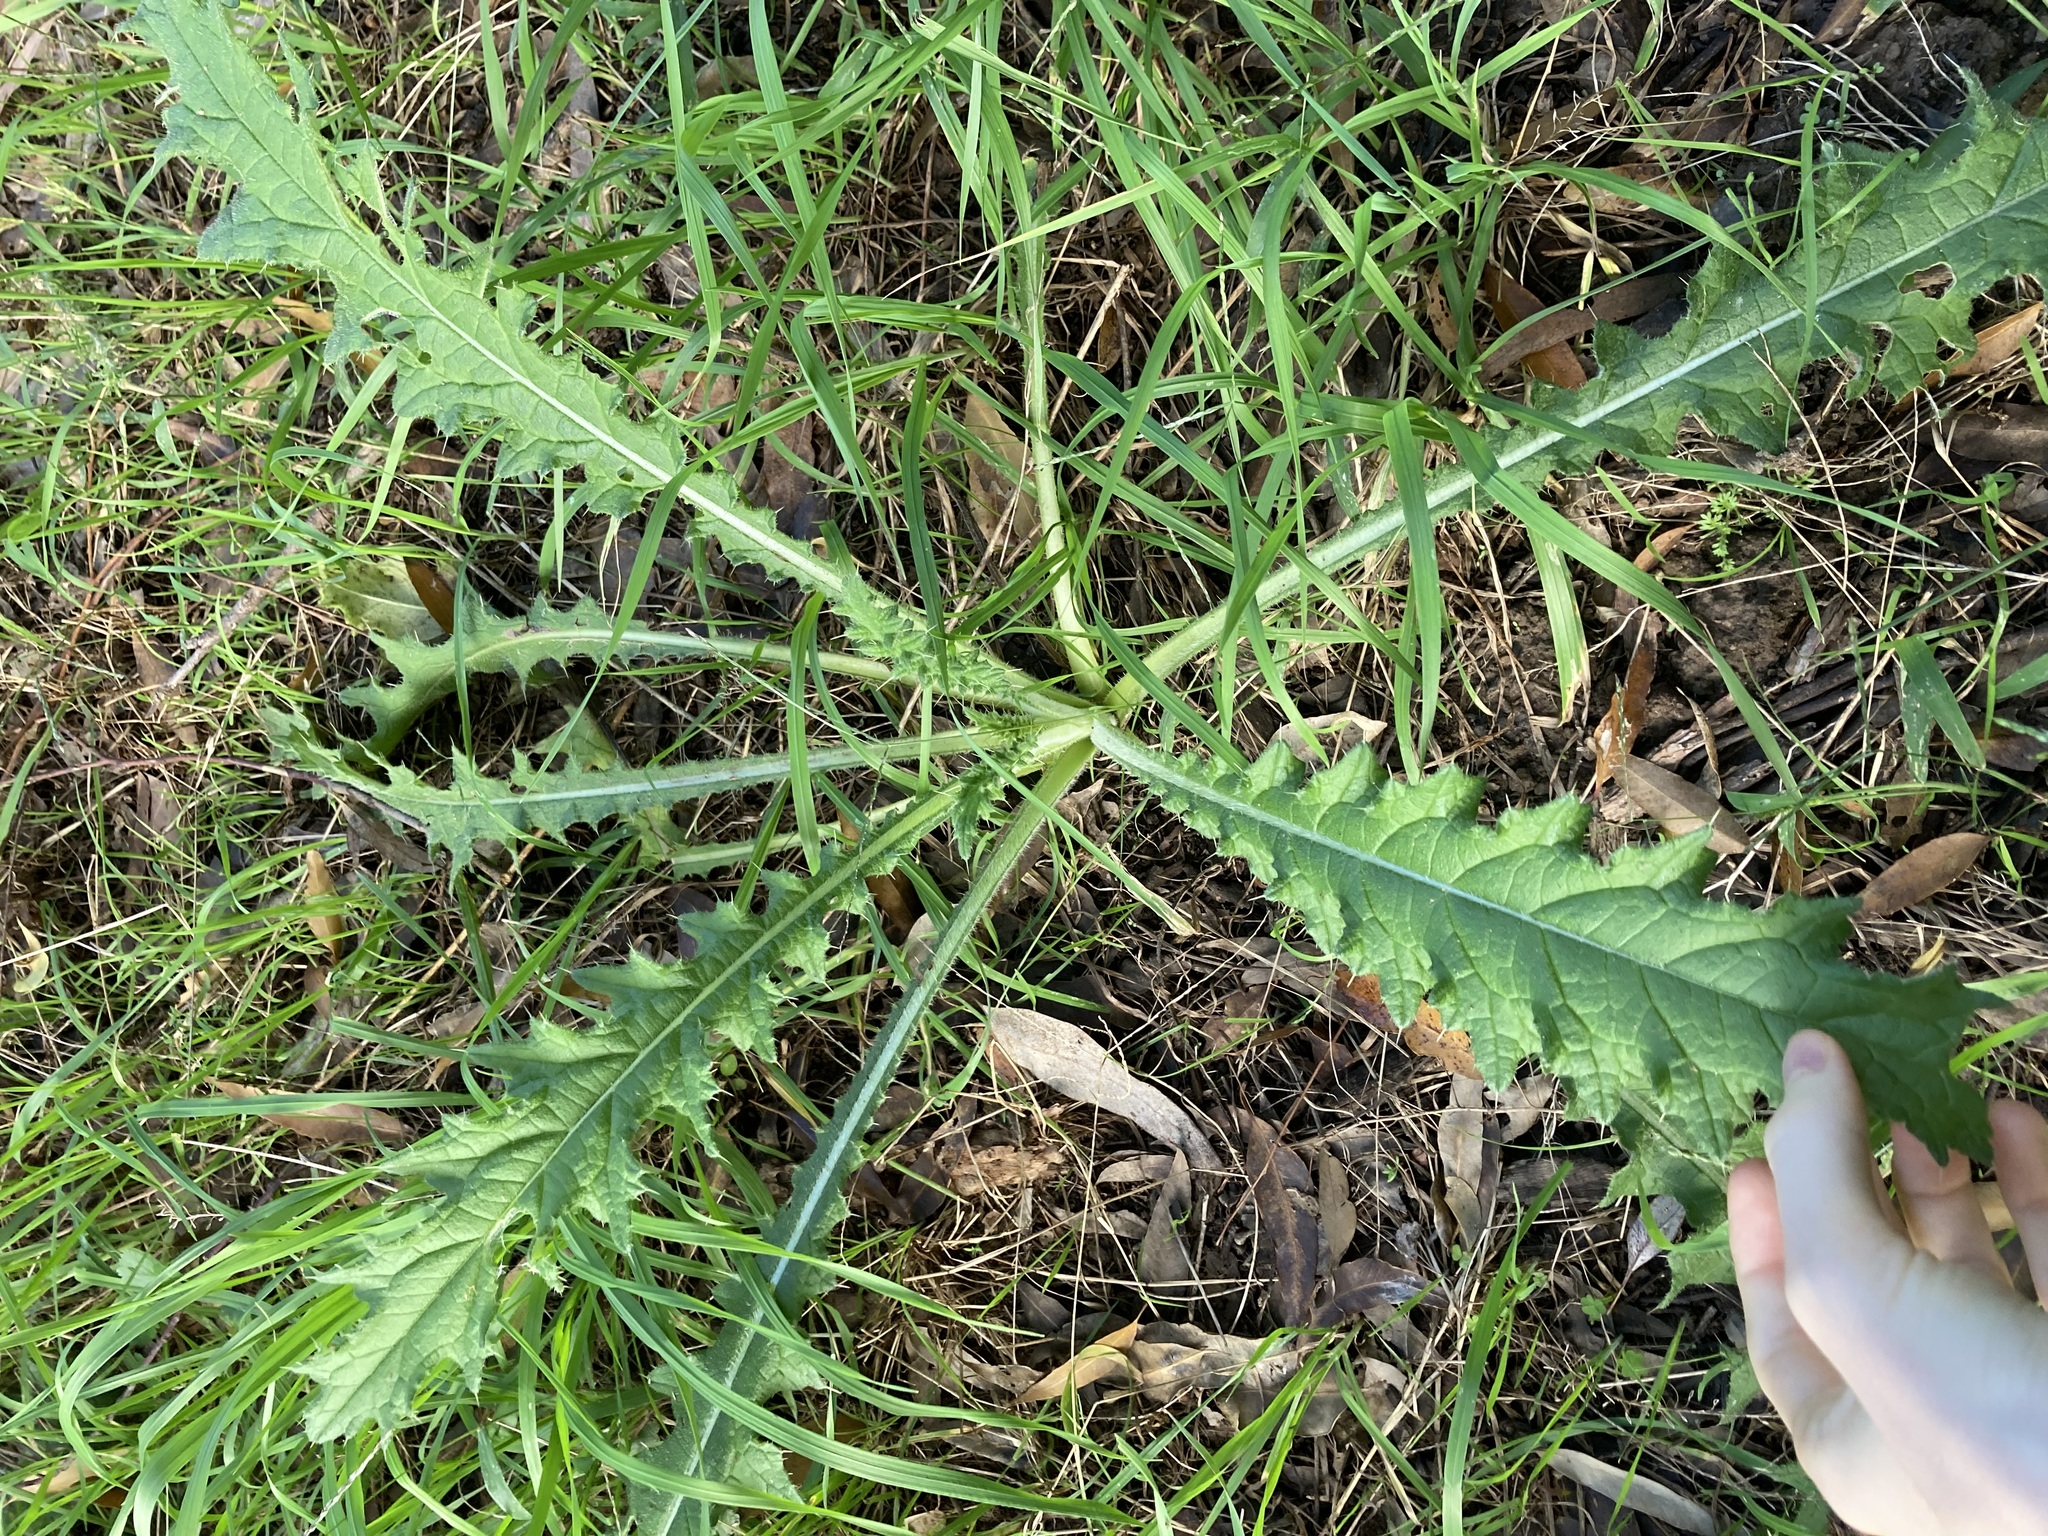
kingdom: Plantae
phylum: Tracheophyta
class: Magnoliopsida
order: Asterales
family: Asteraceae
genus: Cirsium
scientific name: Cirsium vulgare
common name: Bull thistle
